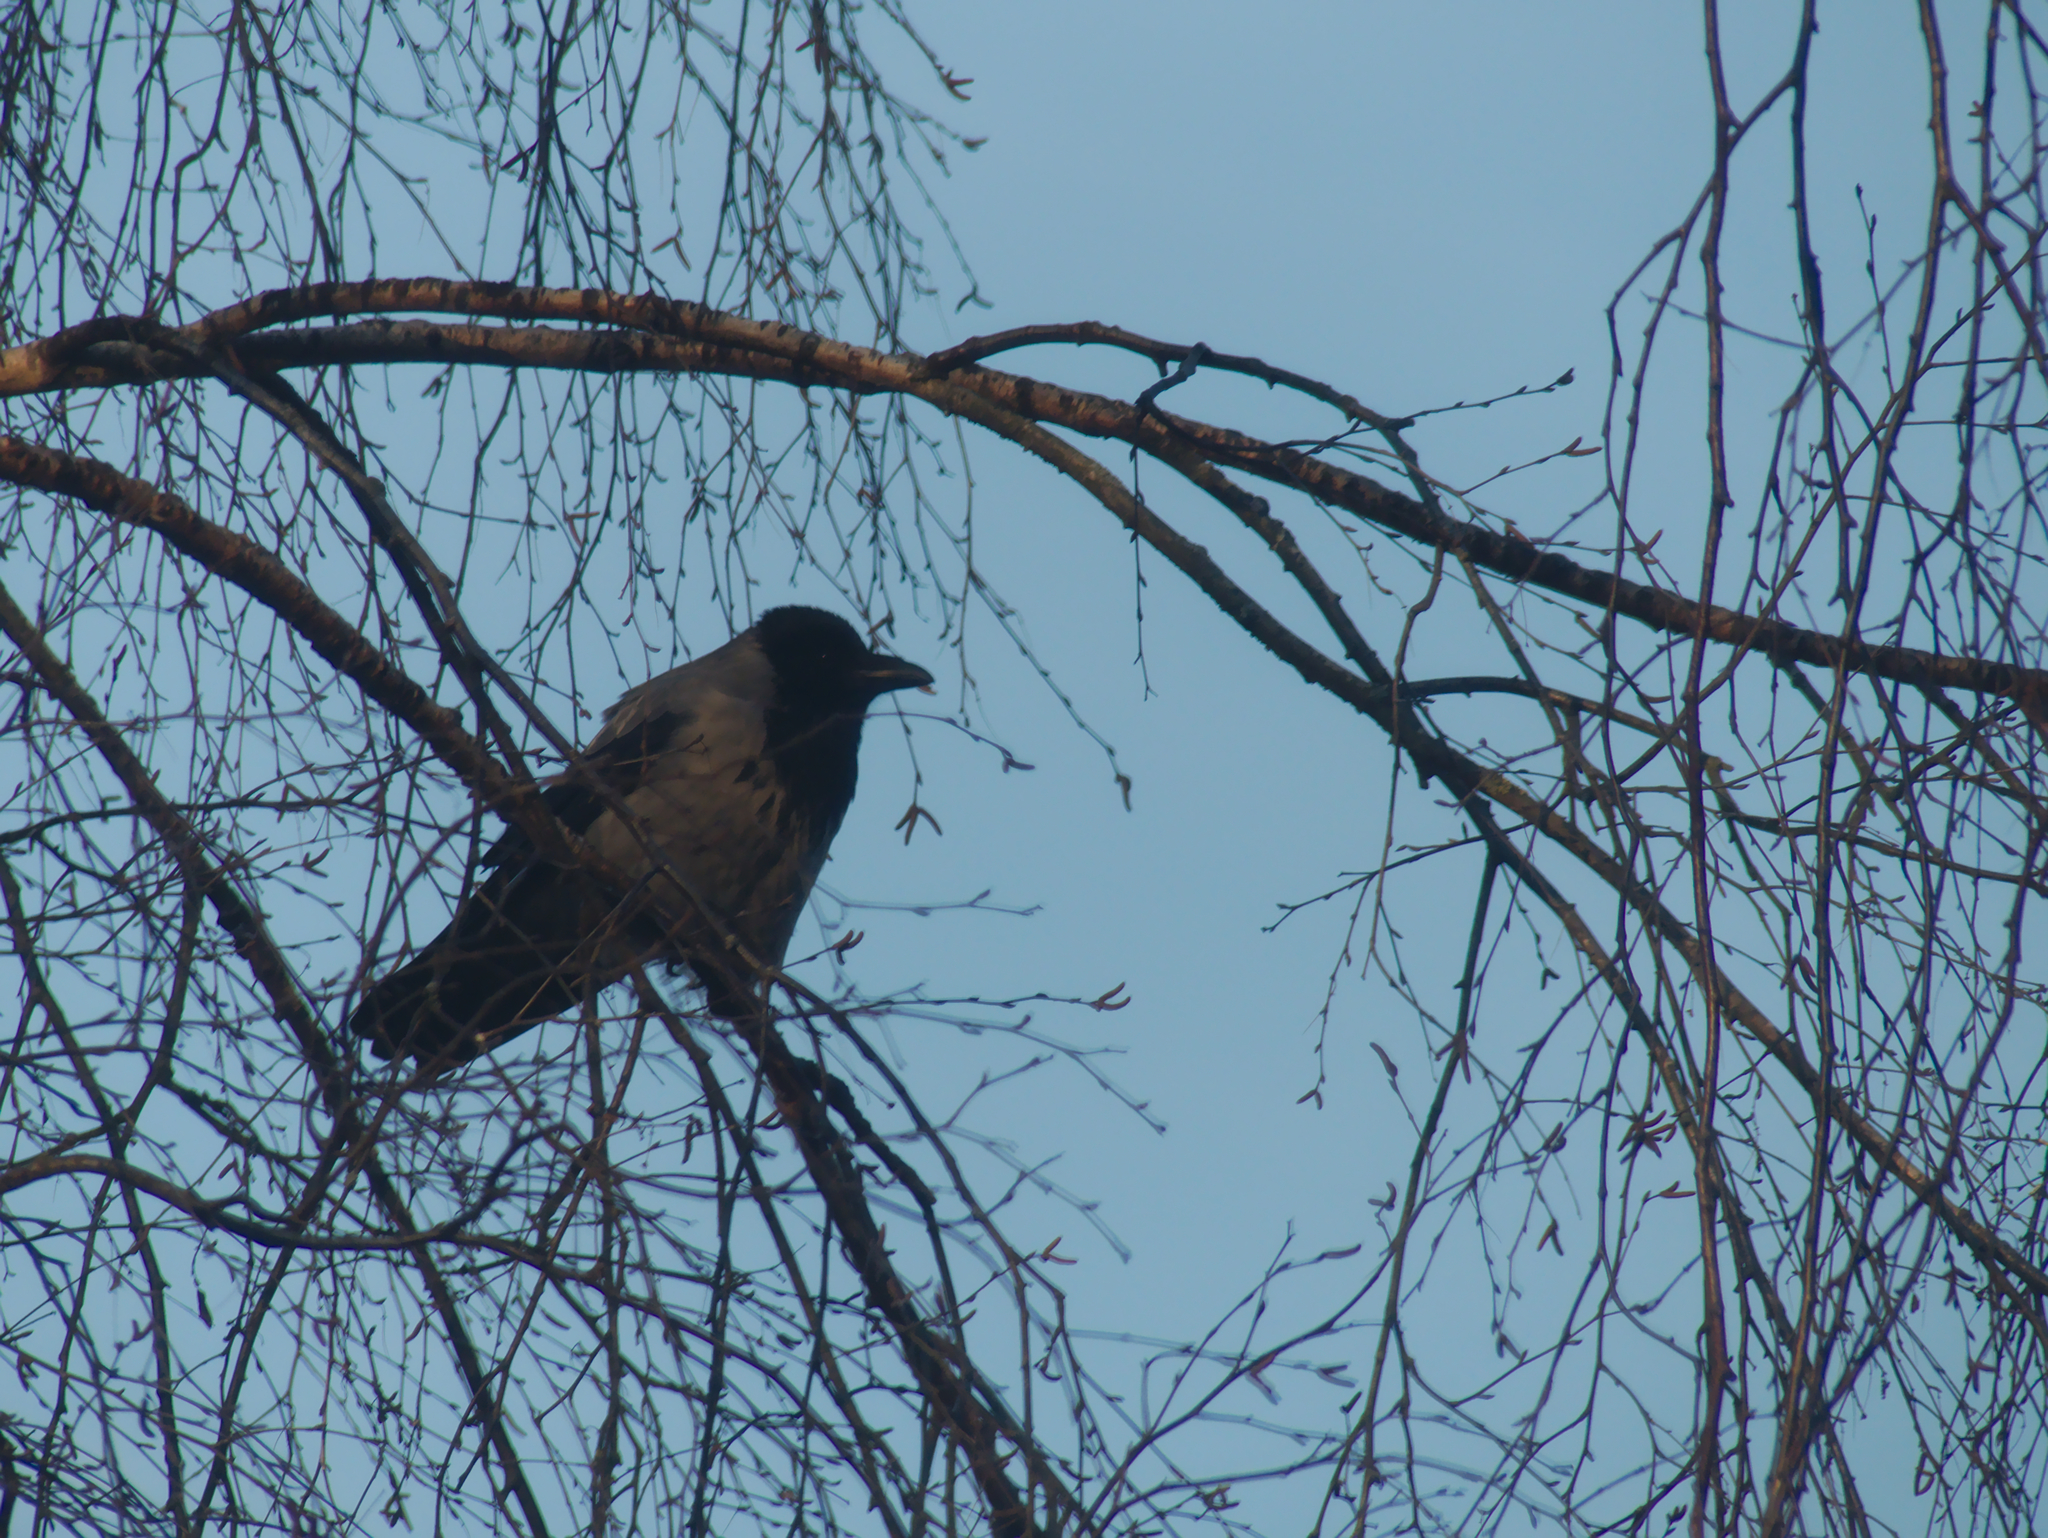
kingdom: Animalia
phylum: Chordata
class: Aves
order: Passeriformes
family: Corvidae
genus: Corvus
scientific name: Corvus cornix
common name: Hooded crow
